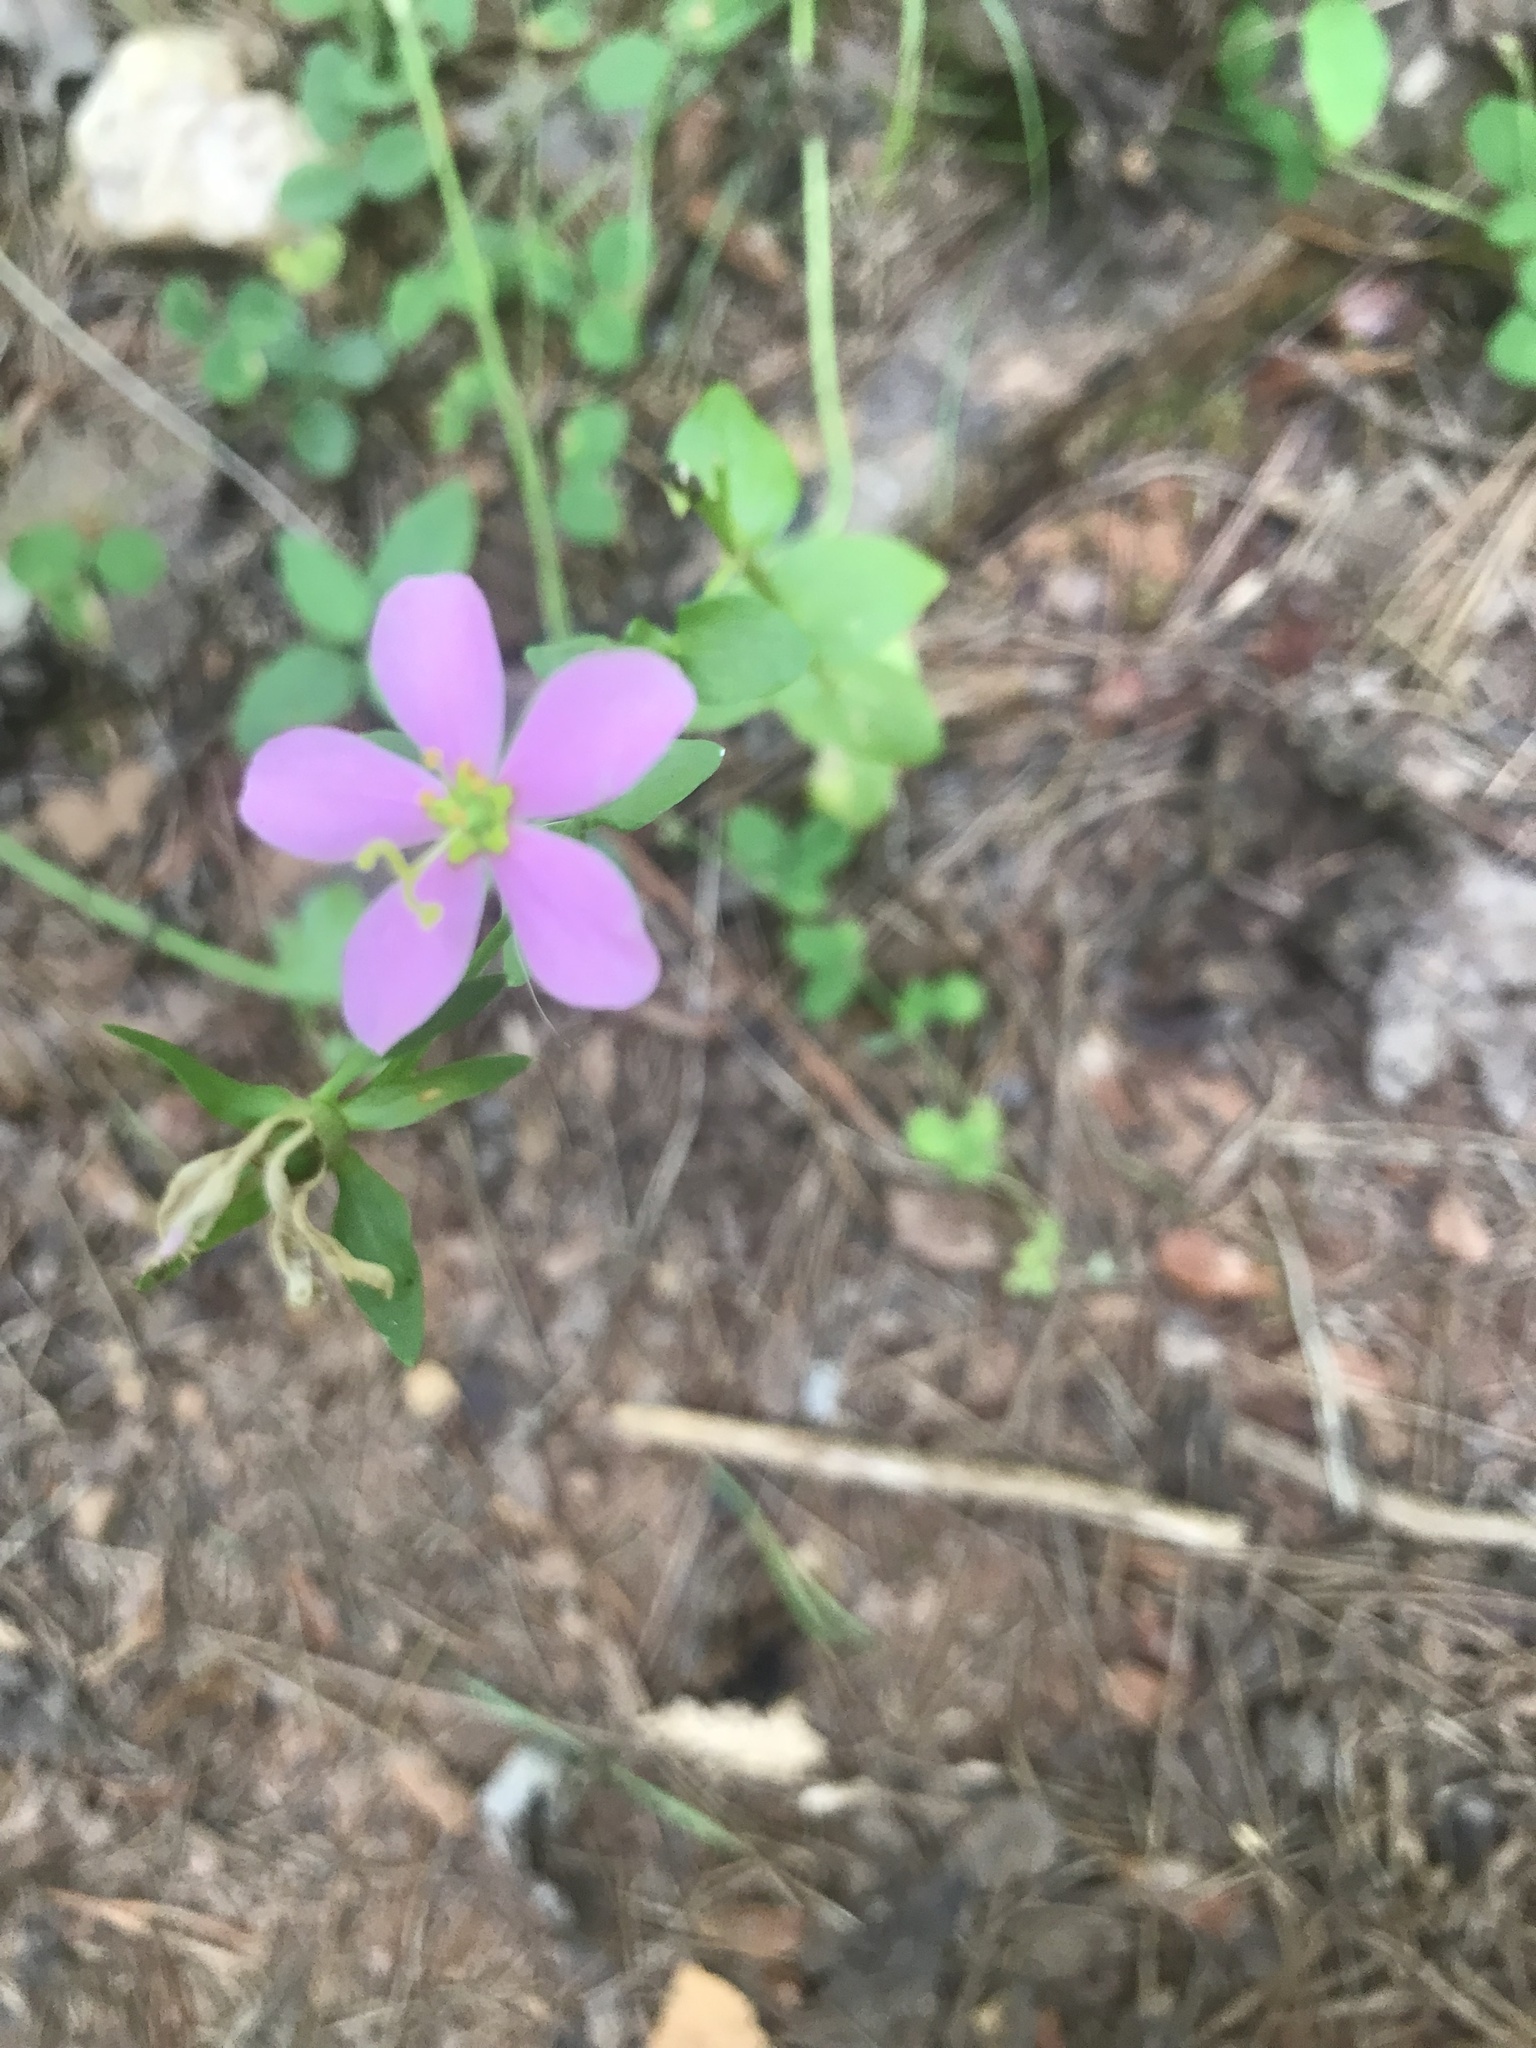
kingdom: Plantae
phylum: Tracheophyta
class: Magnoliopsida
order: Gentianales
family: Gentianaceae
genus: Sabatia
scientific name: Sabatia angularis
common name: Rose-pink
